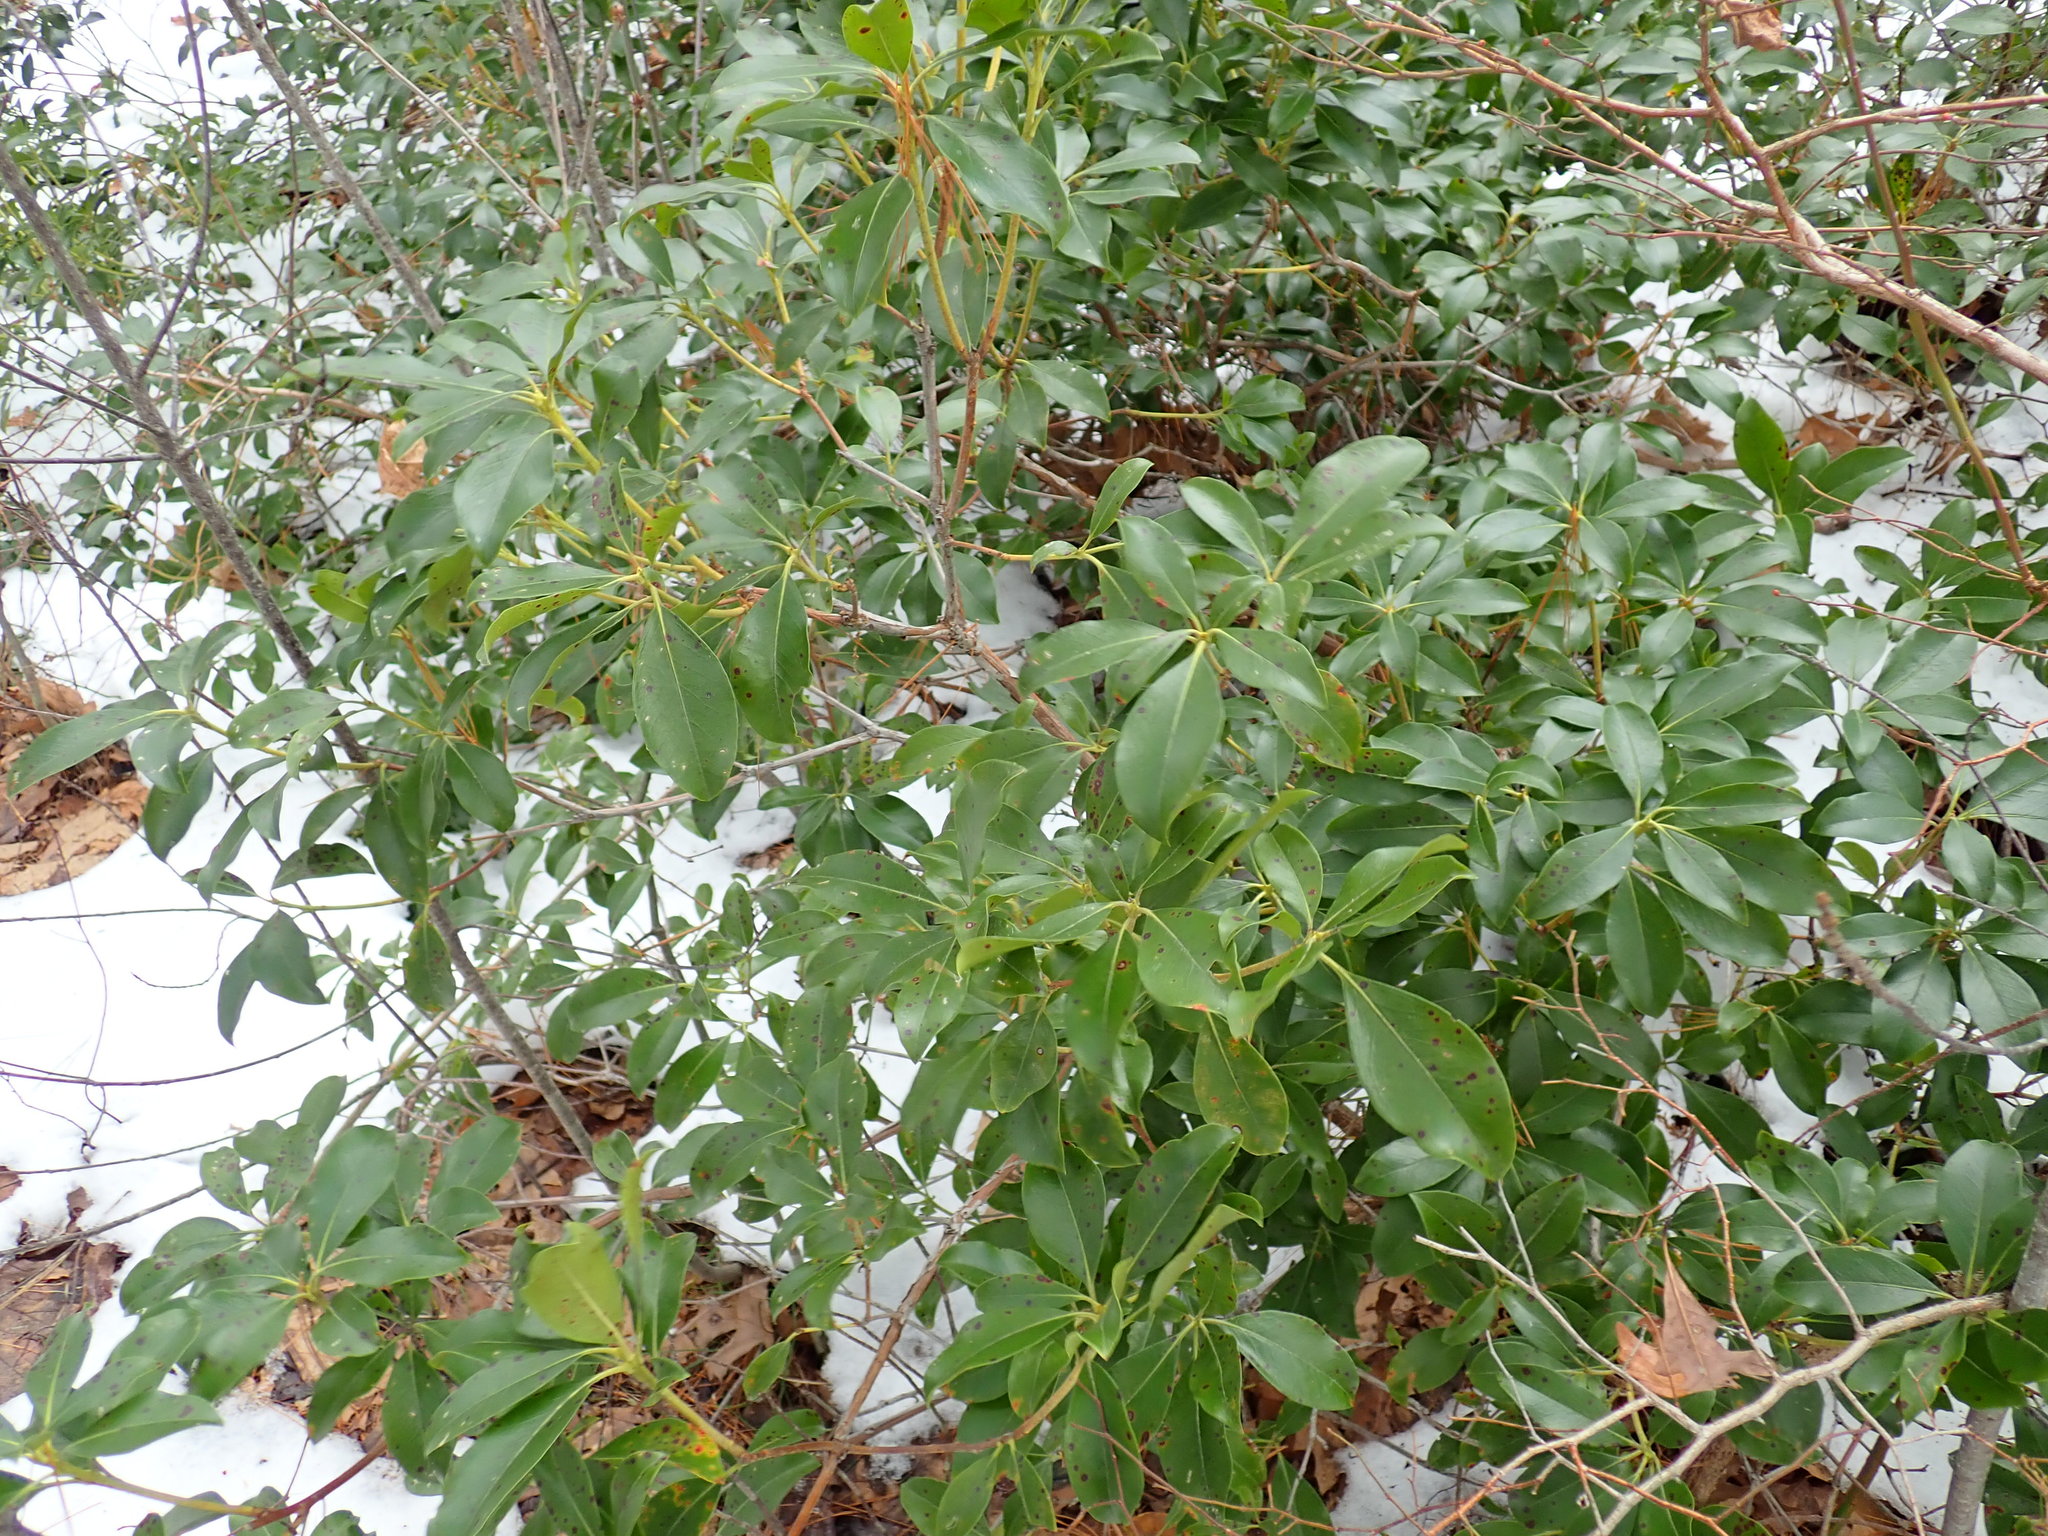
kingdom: Plantae
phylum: Tracheophyta
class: Magnoliopsida
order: Ericales
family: Ericaceae
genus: Kalmia
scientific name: Kalmia latifolia
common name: Mountain-laurel
